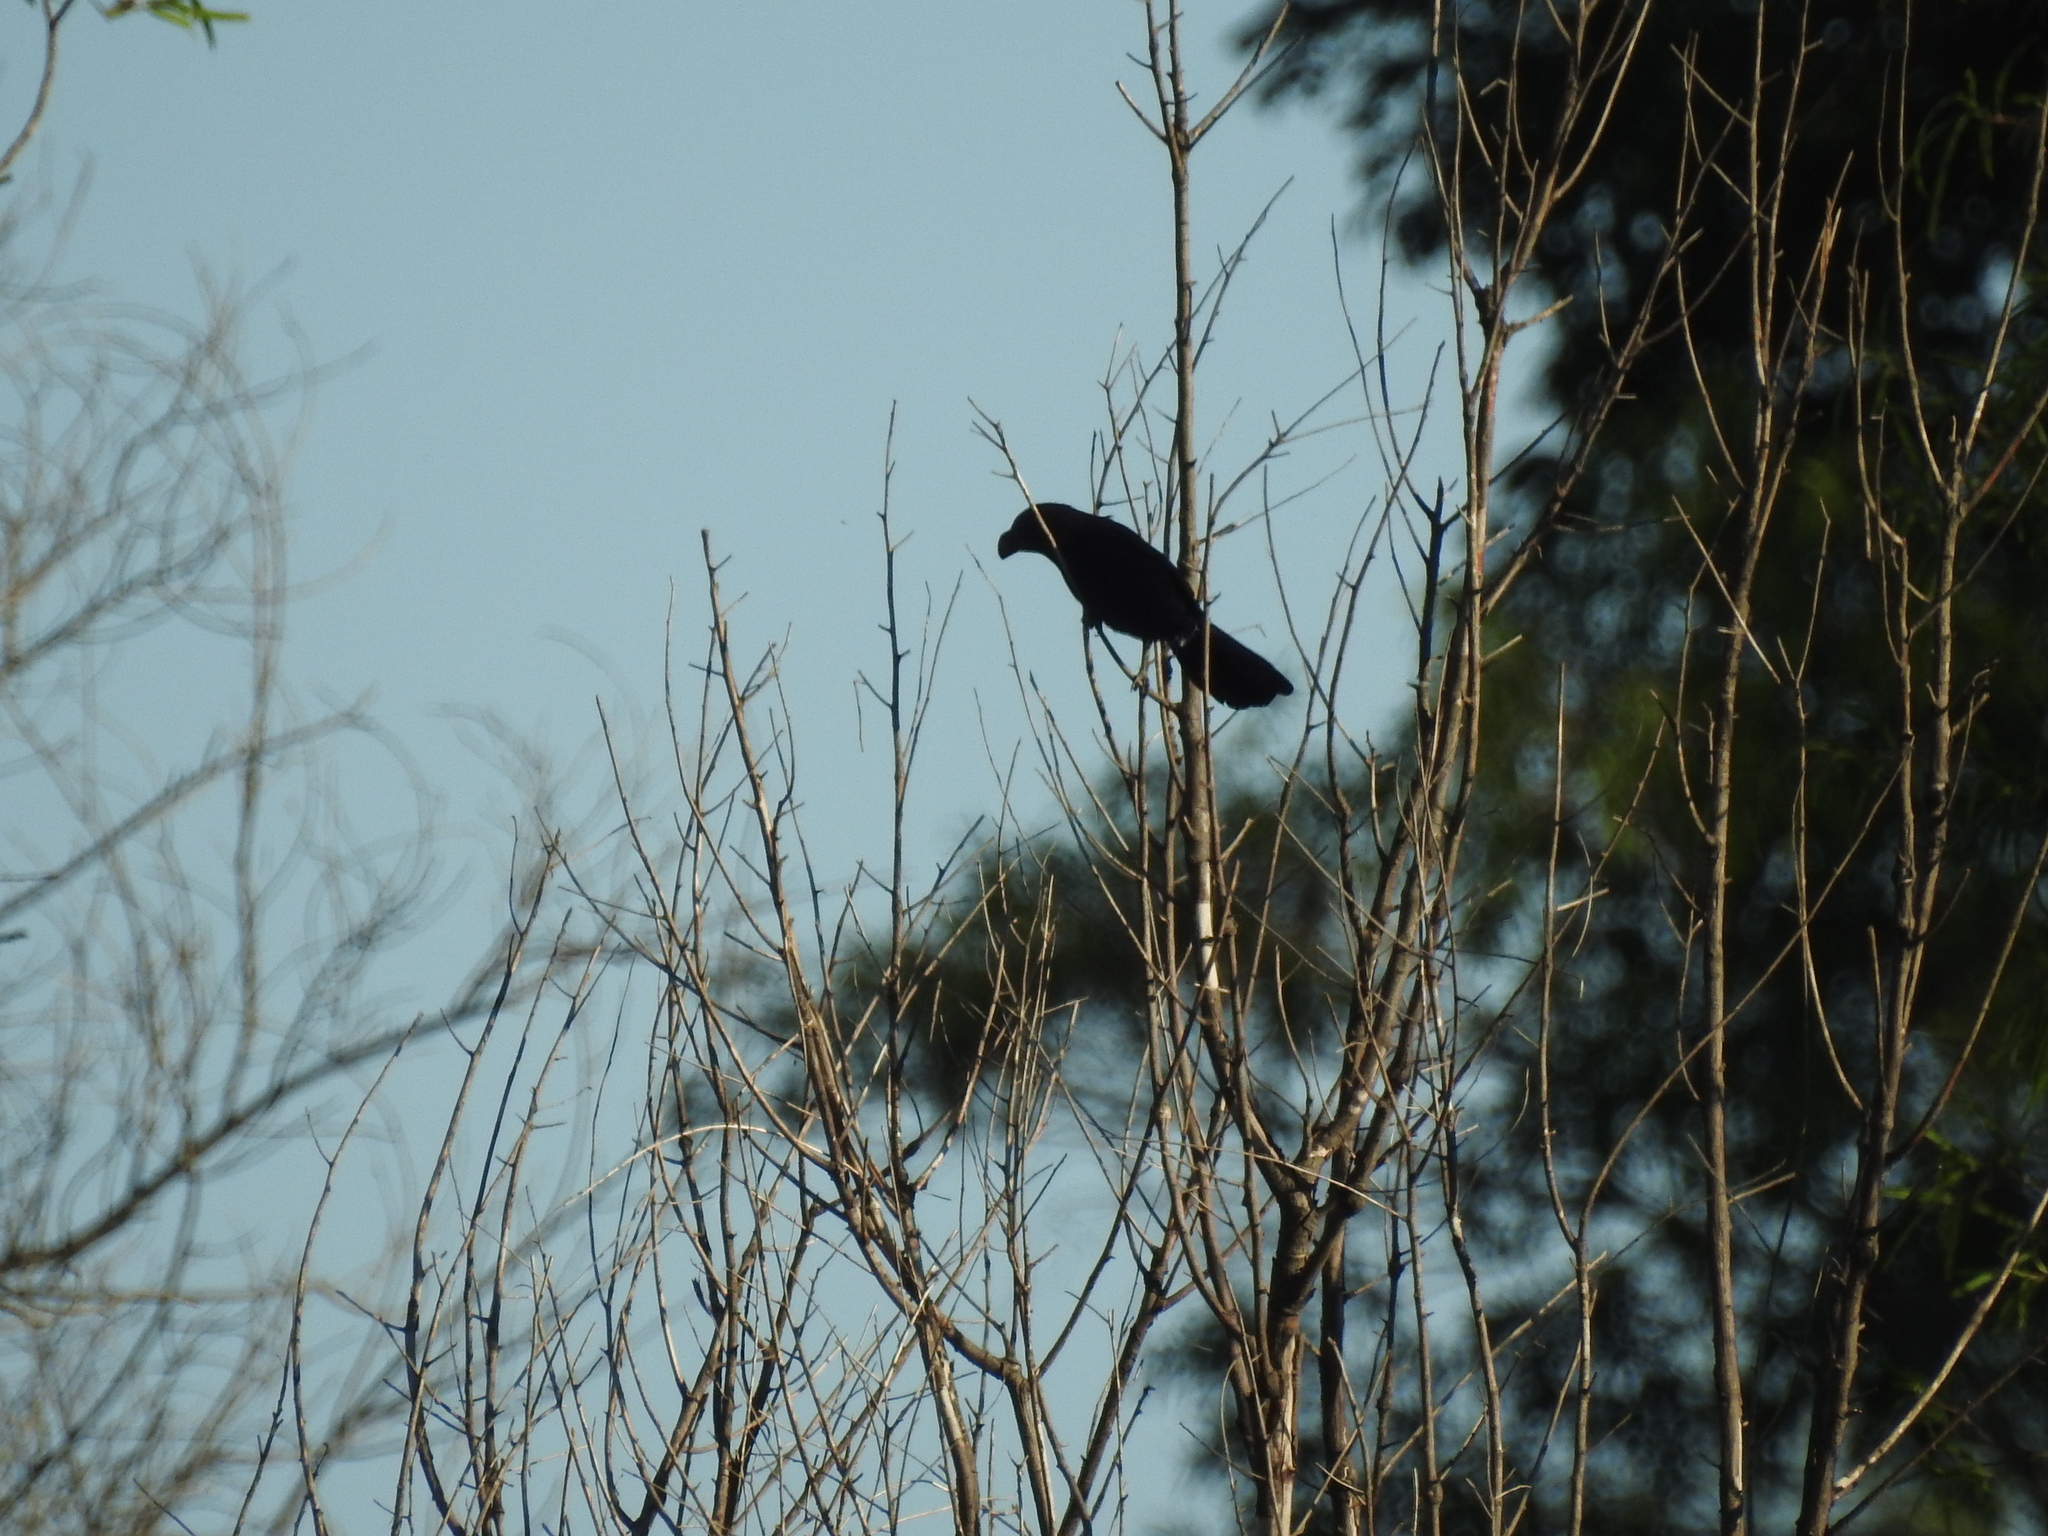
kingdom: Animalia
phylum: Chordata
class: Aves
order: Passeriformes
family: Icteridae
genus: Agelasticus
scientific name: Agelasticus cyanopus
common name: Unicolored blackbird
